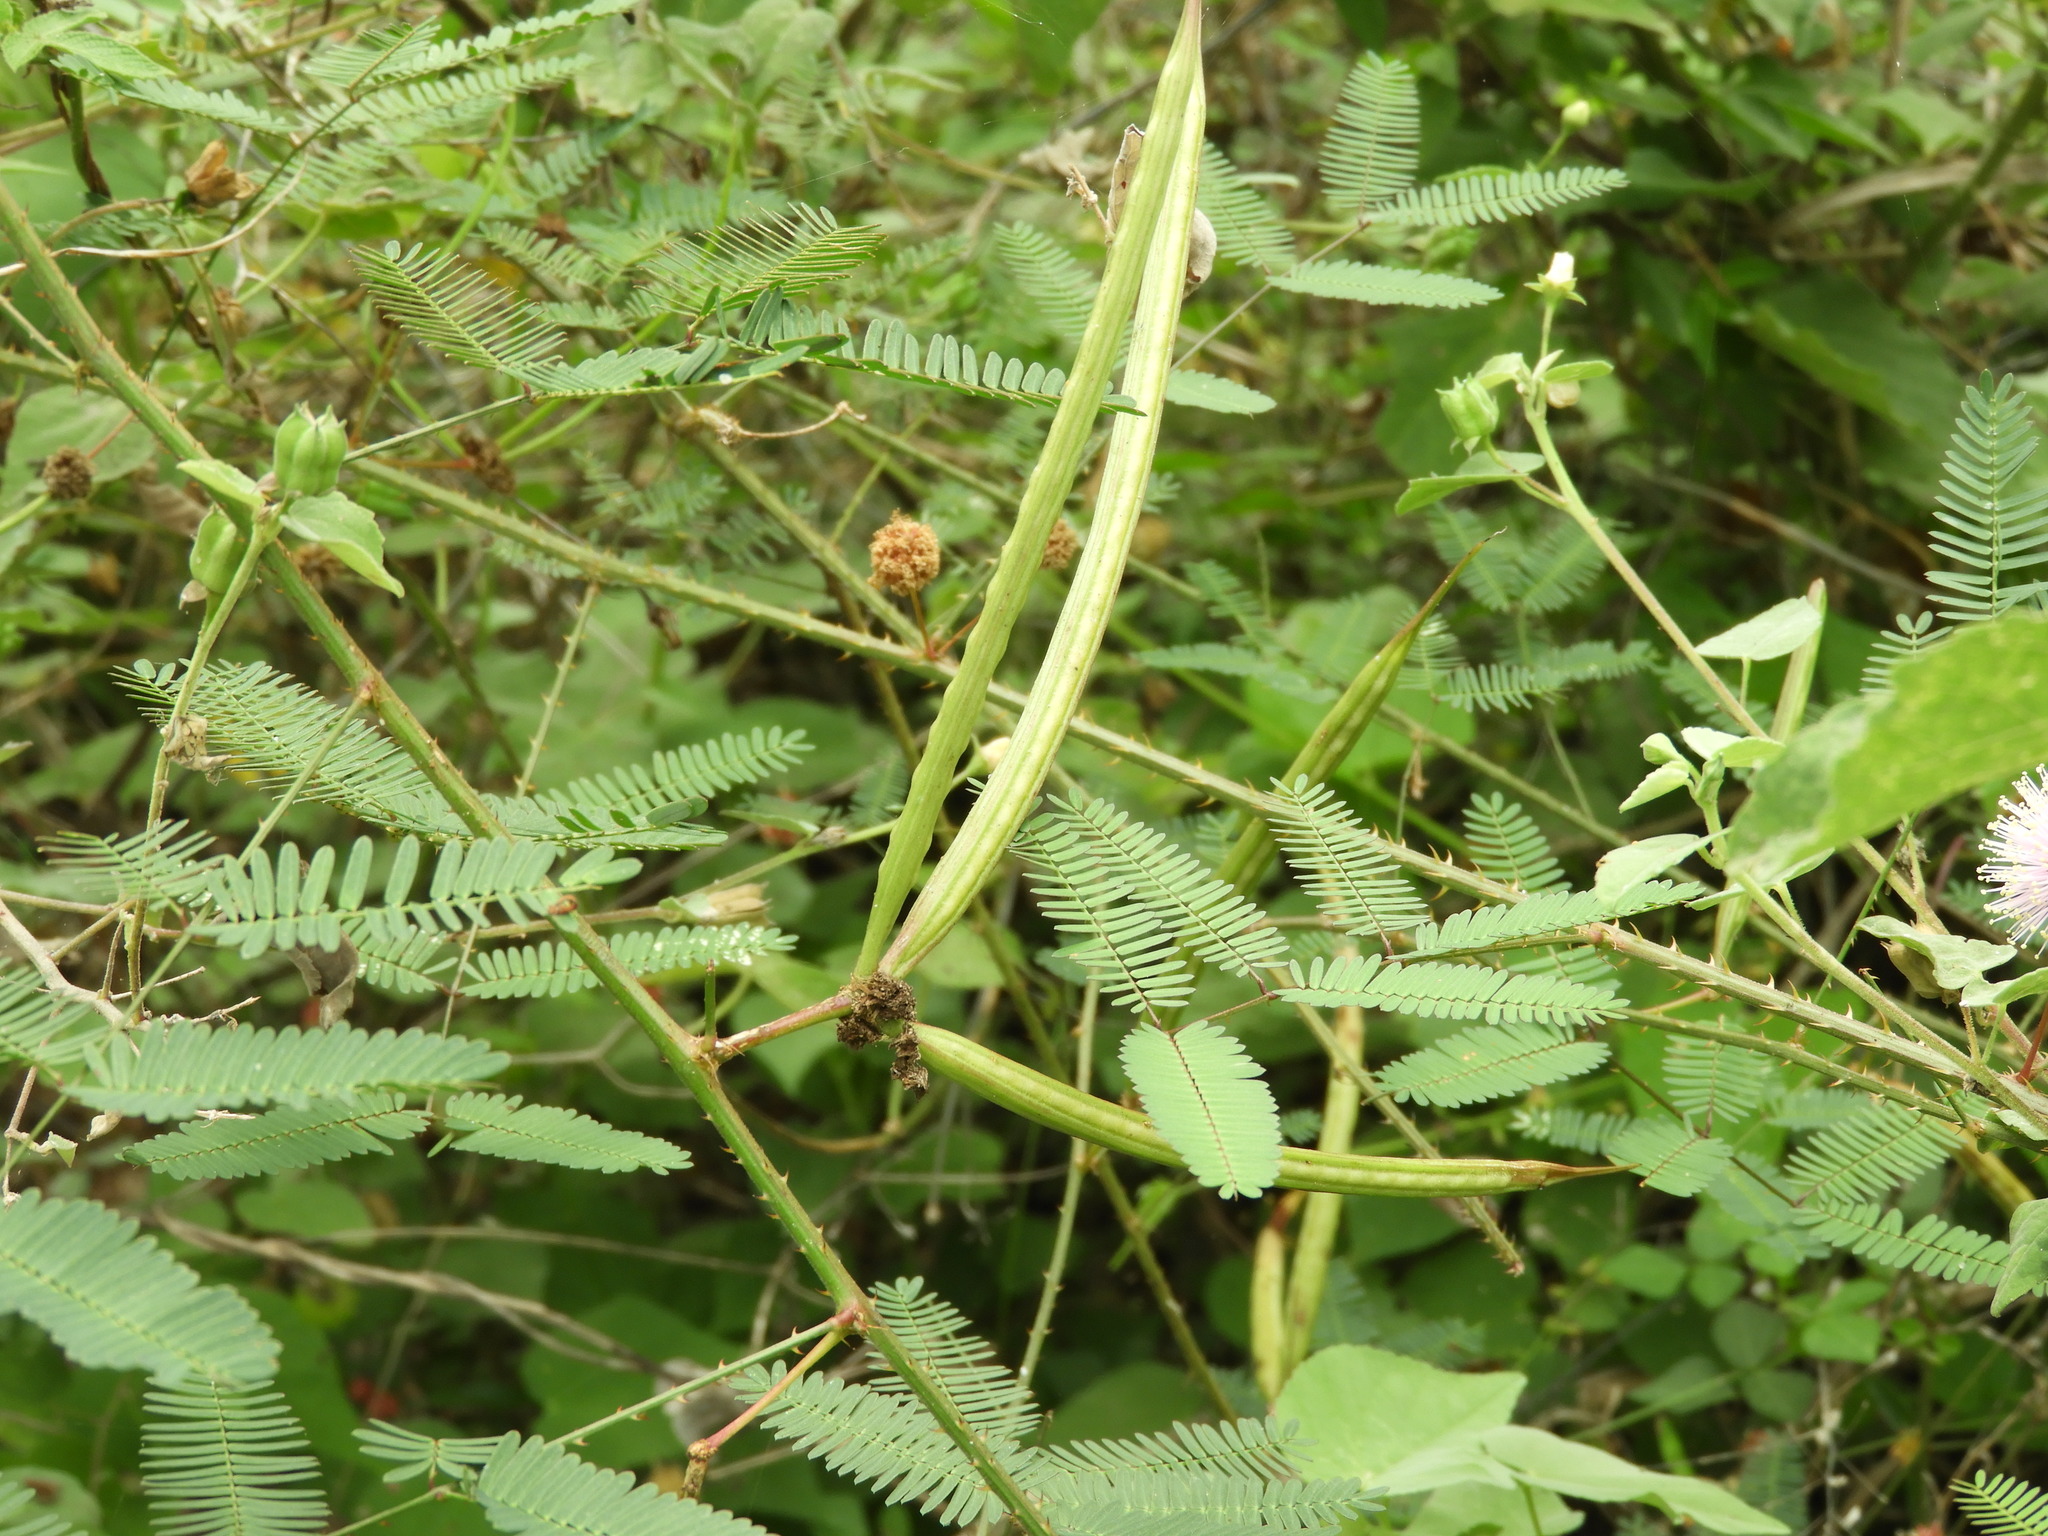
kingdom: Plantae
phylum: Tracheophyta
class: Magnoliopsida
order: Fabales
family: Fabaceae
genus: Mimosa
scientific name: Mimosa quadrivalvis
